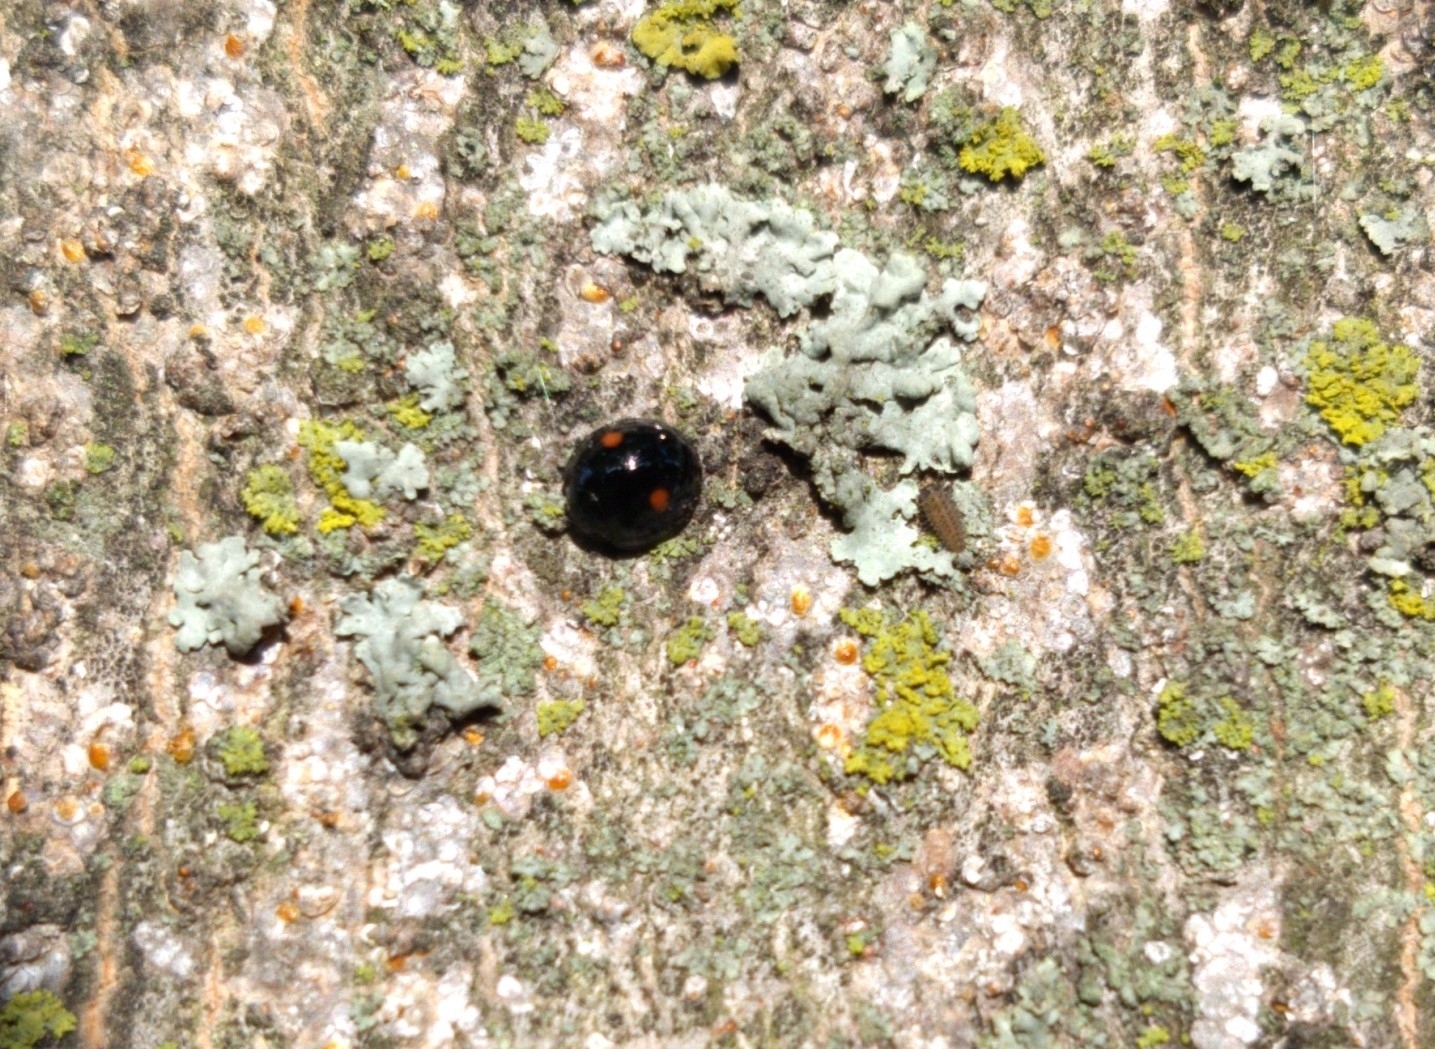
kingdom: Animalia
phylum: Arthropoda
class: Insecta
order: Coleoptera
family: Coccinellidae
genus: Chilocorus
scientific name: Chilocorus stigma
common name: Twicestabbed lady beetle
